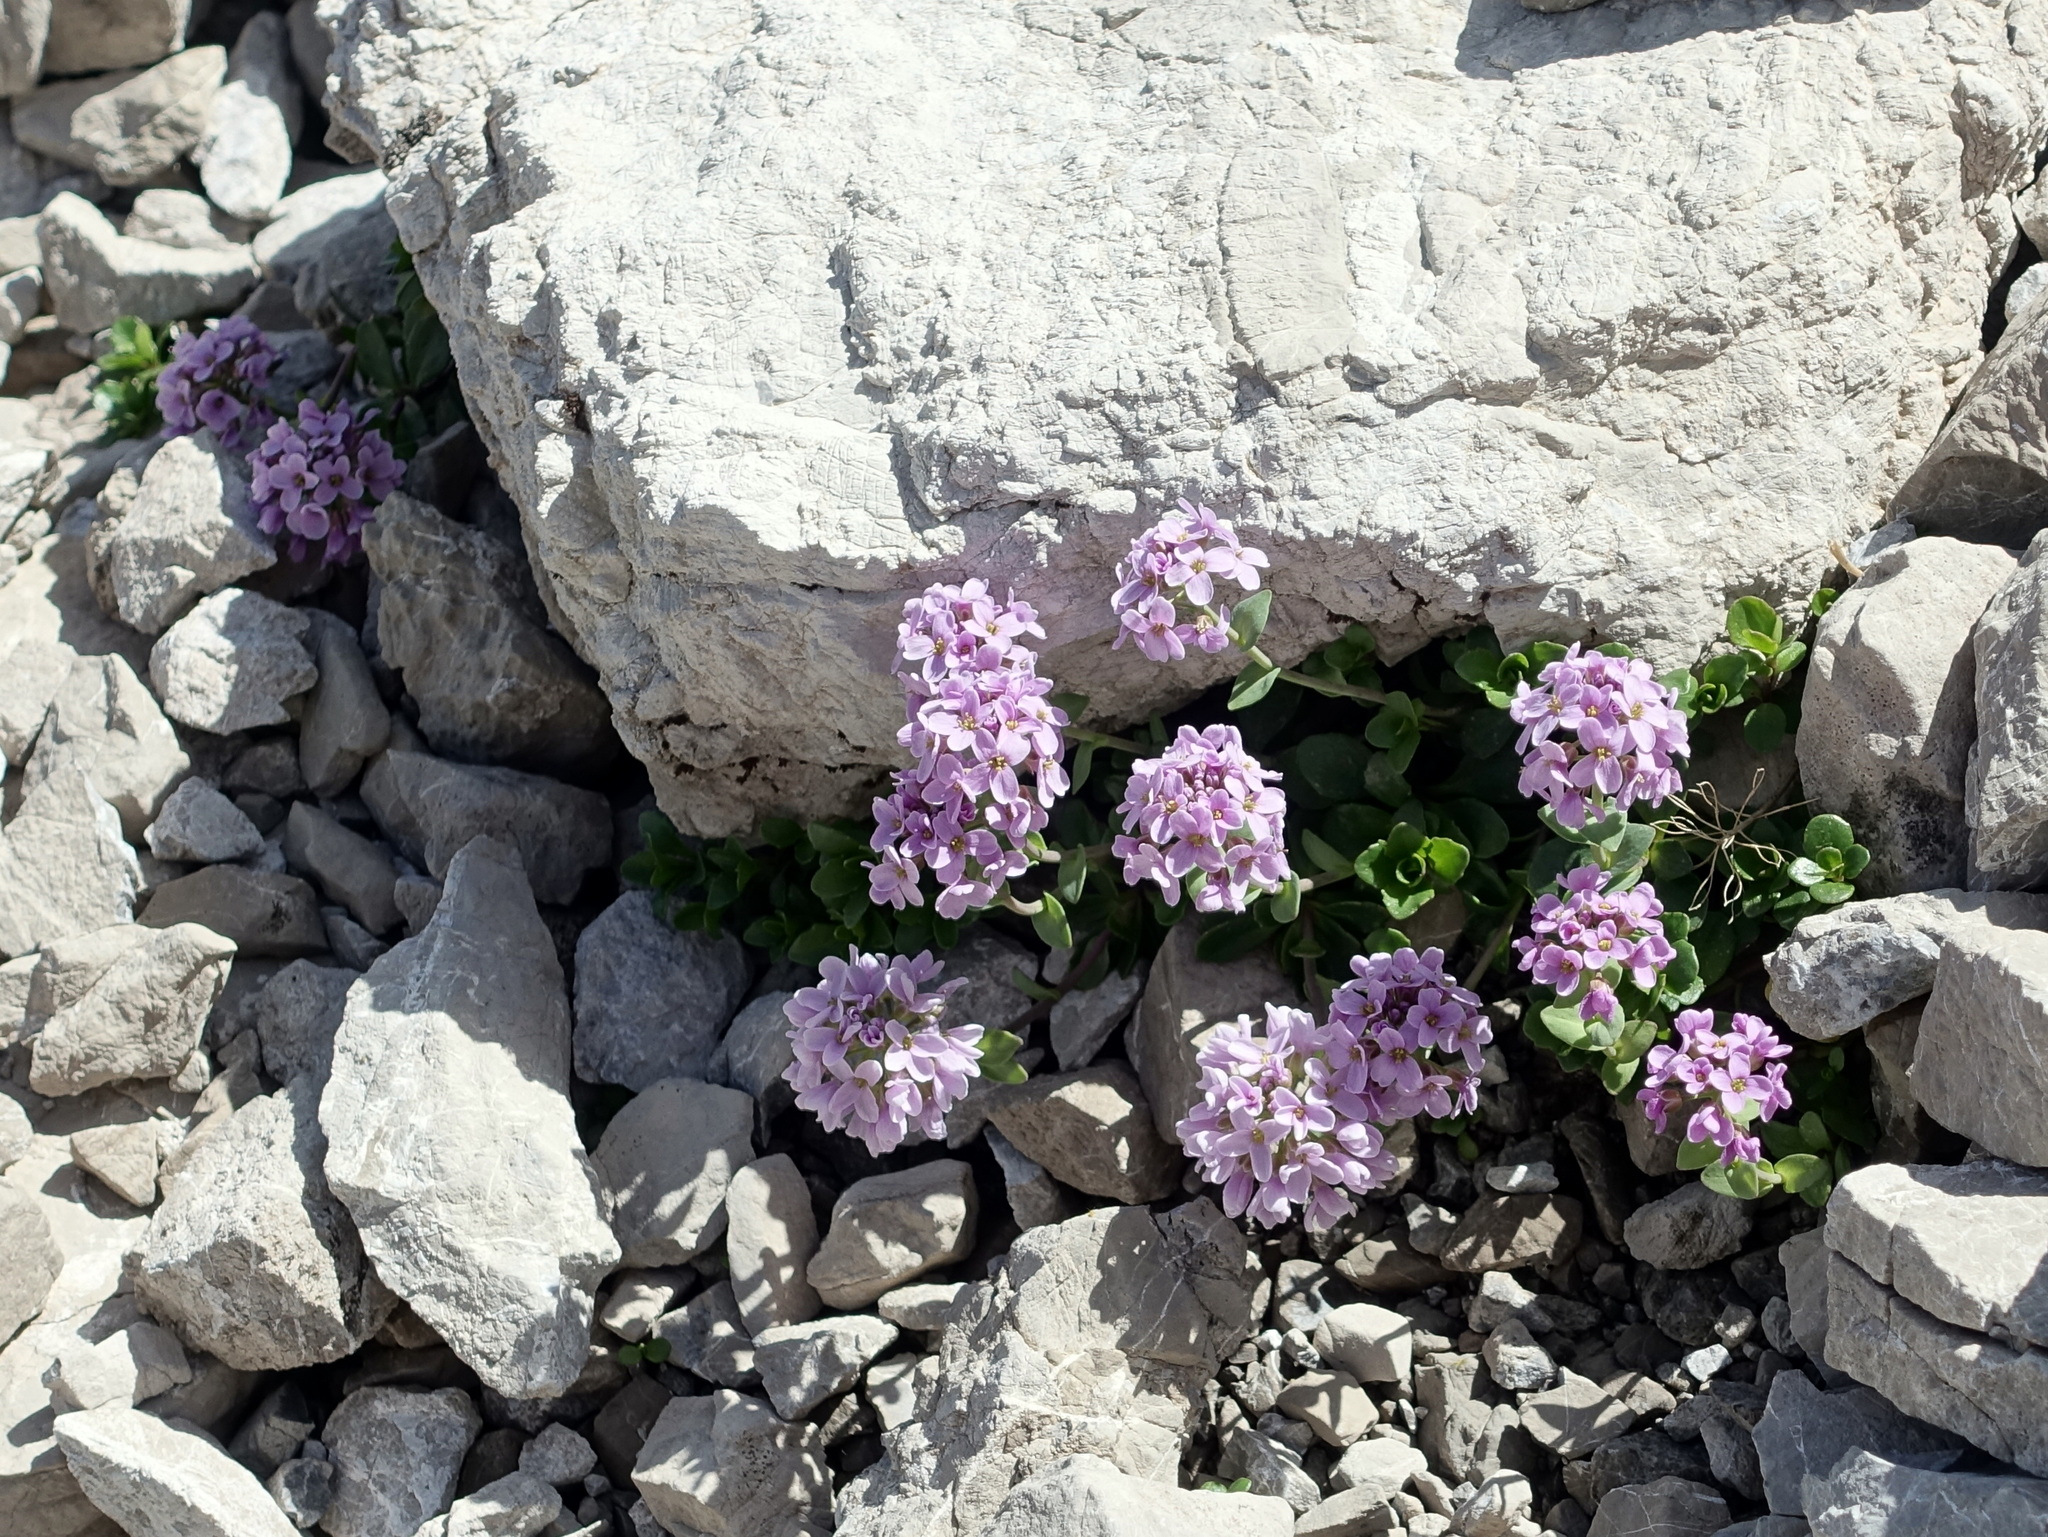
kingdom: Plantae
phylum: Tracheophyta
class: Magnoliopsida
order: Brassicales
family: Brassicaceae
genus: Noccaea
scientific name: Noccaea rotundifolia
